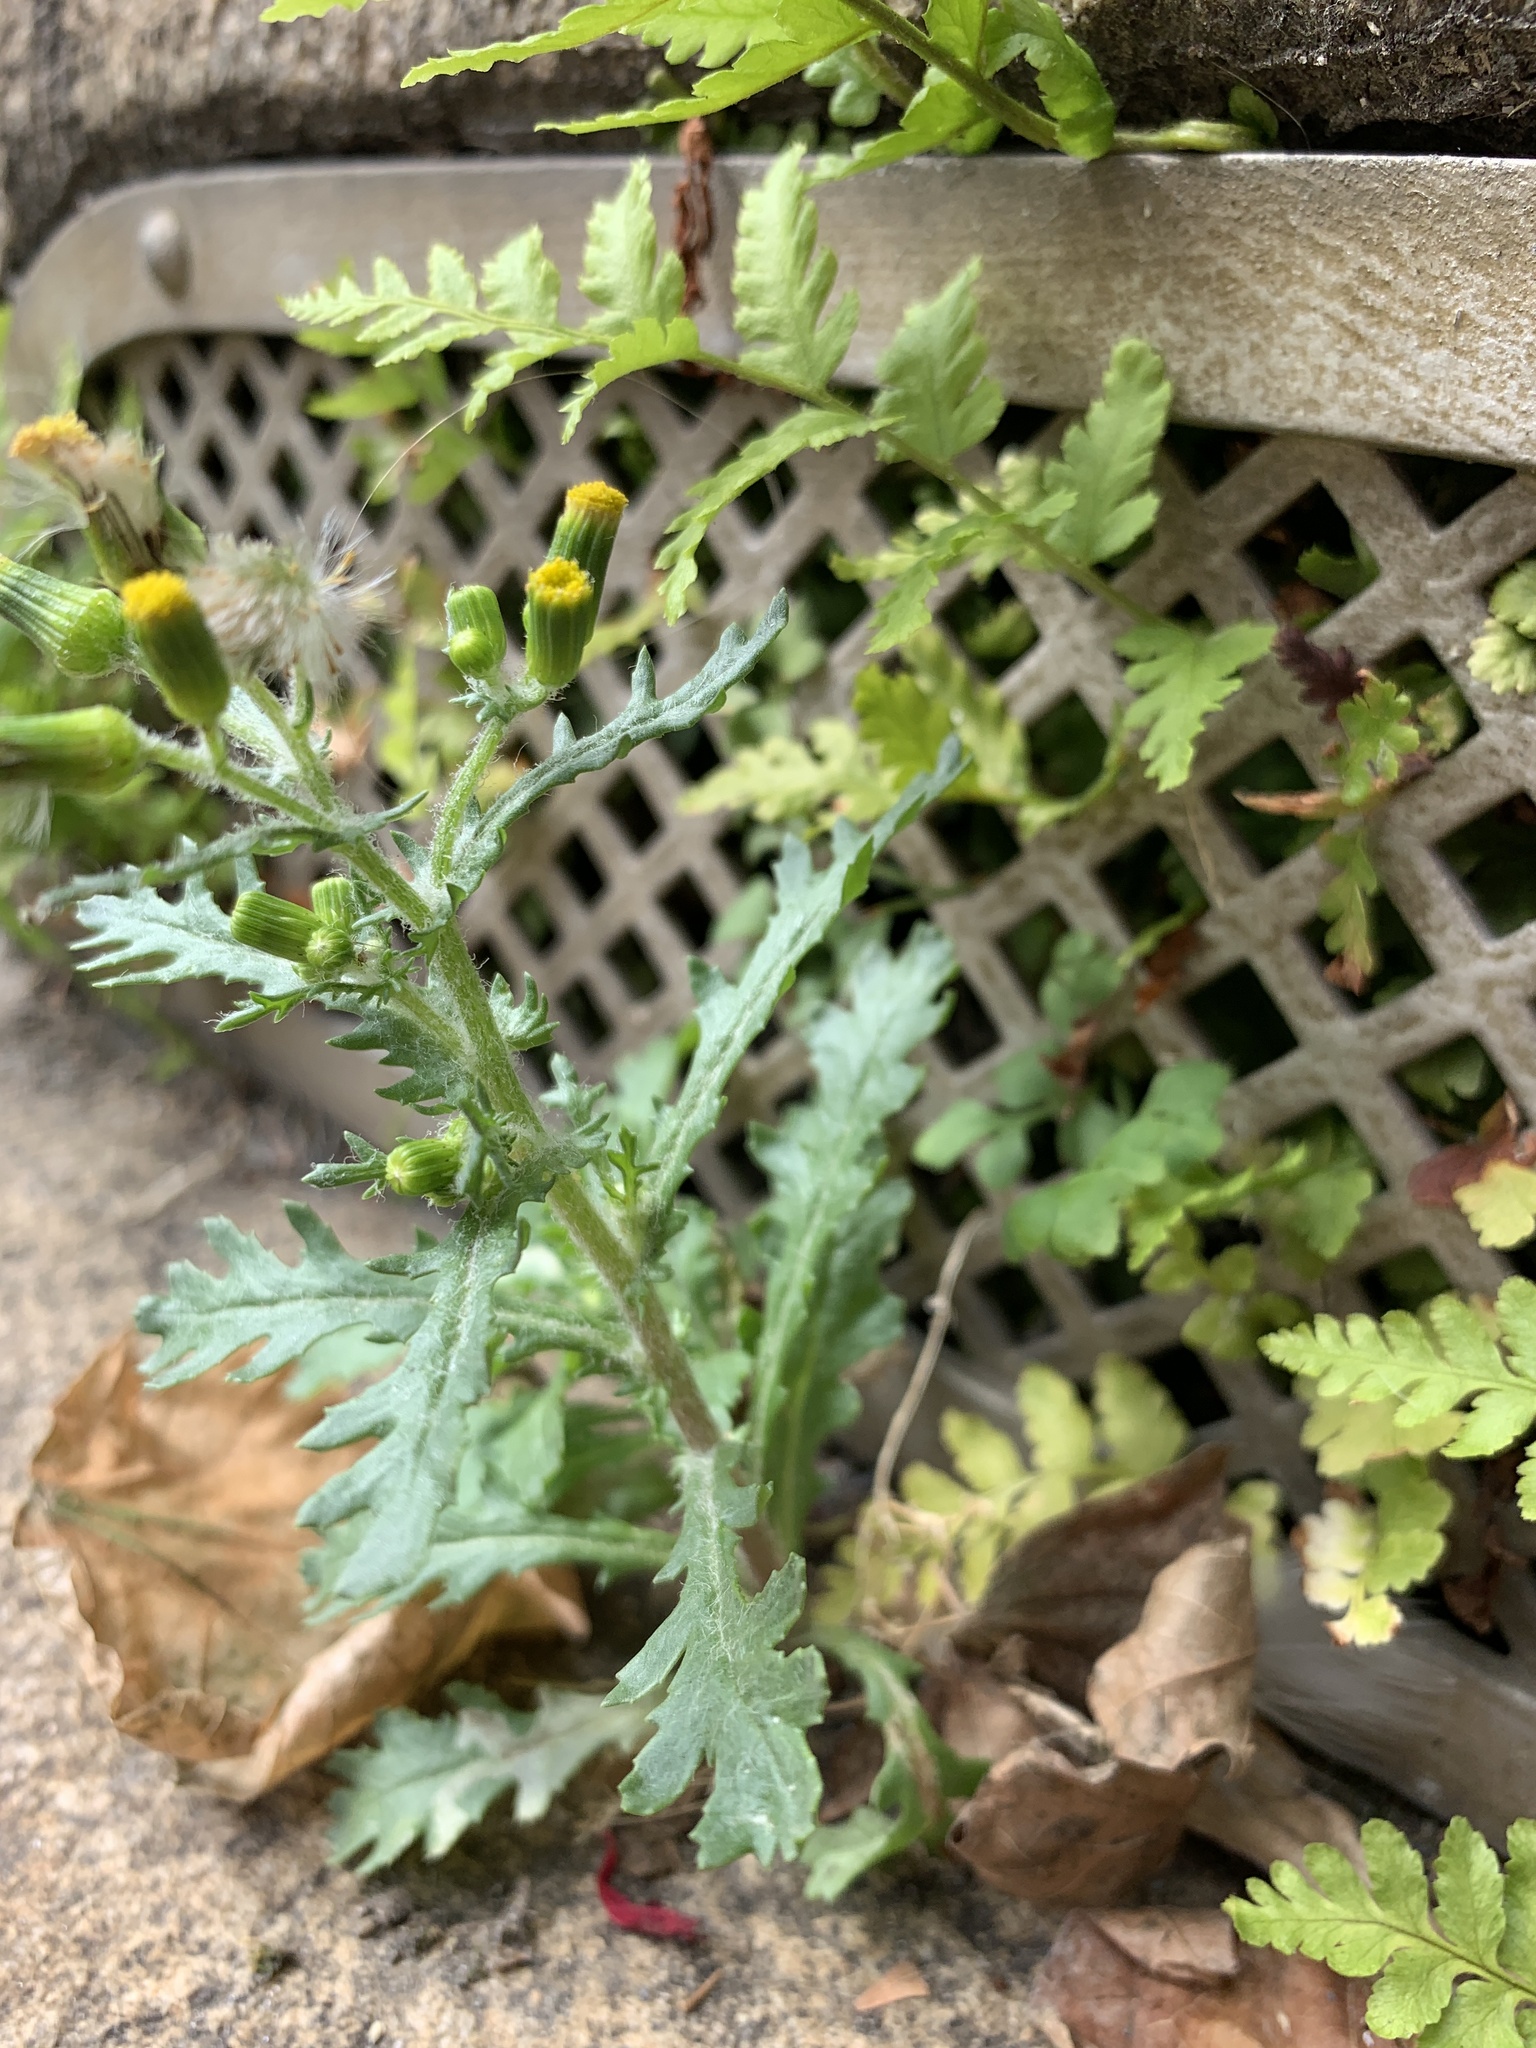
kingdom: Plantae
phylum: Tracheophyta
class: Magnoliopsida
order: Asterales
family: Asteraceae
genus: Senecio
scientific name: Senecio vulgaris
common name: Old-man-in-the-spring
